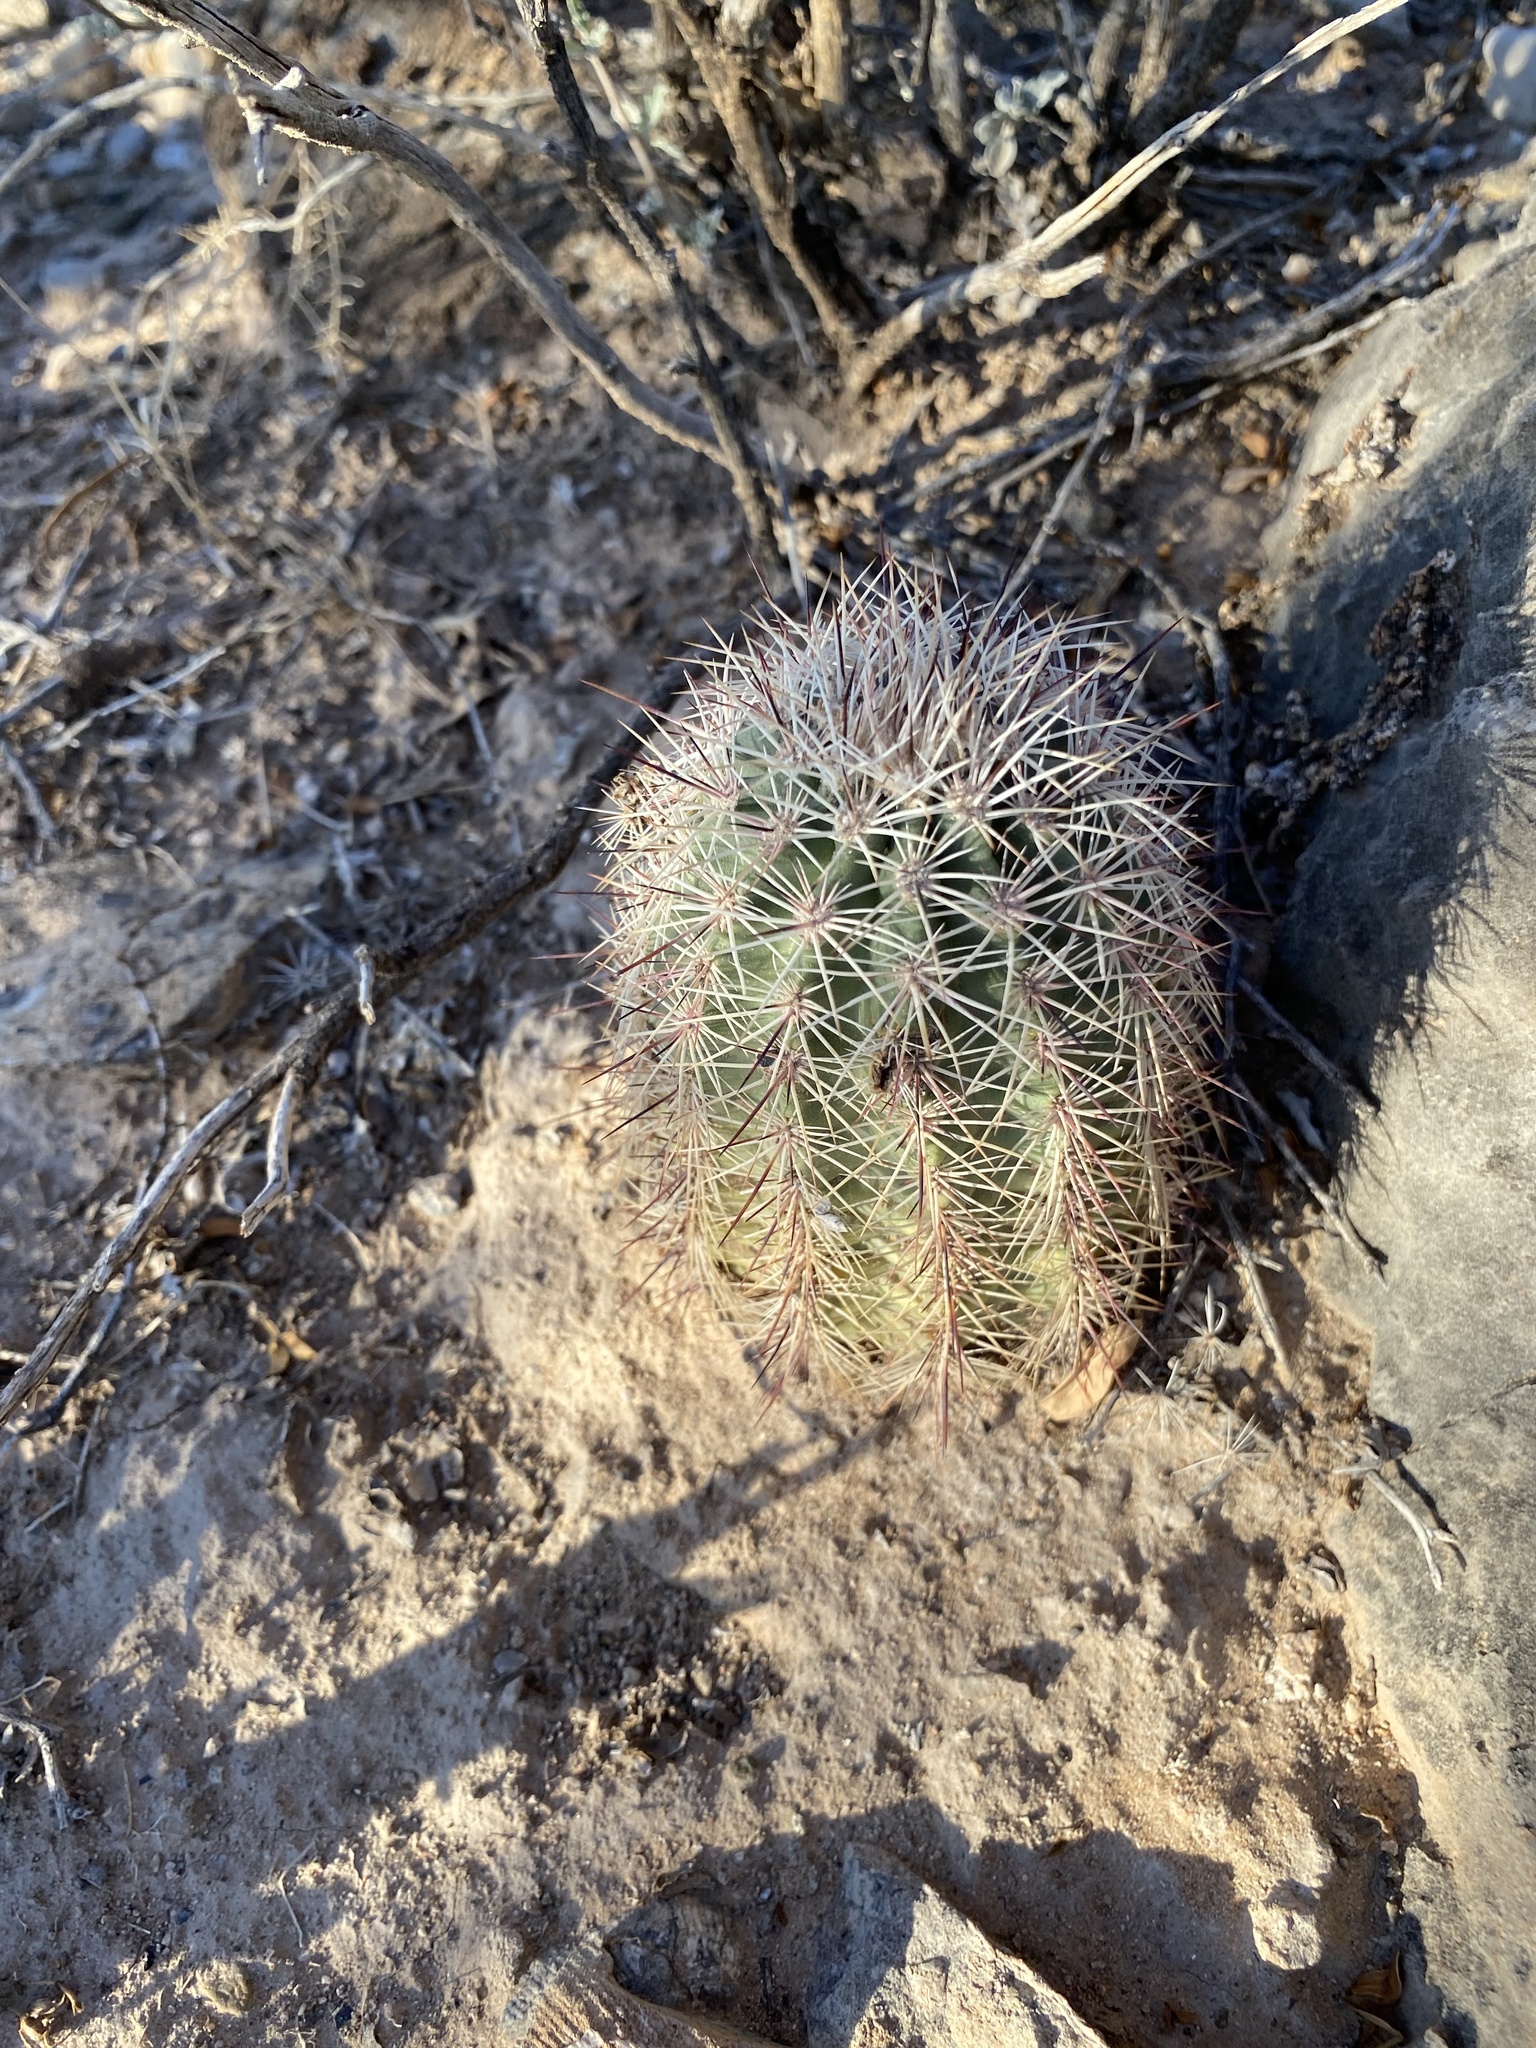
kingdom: Plantae
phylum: Tracheophyta
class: Magnoliopsida
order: Caryophyllales
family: Cactaceae
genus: Echinocereus
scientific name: Echinocereus roetteri
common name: Lloyd's hedgehog cactus
